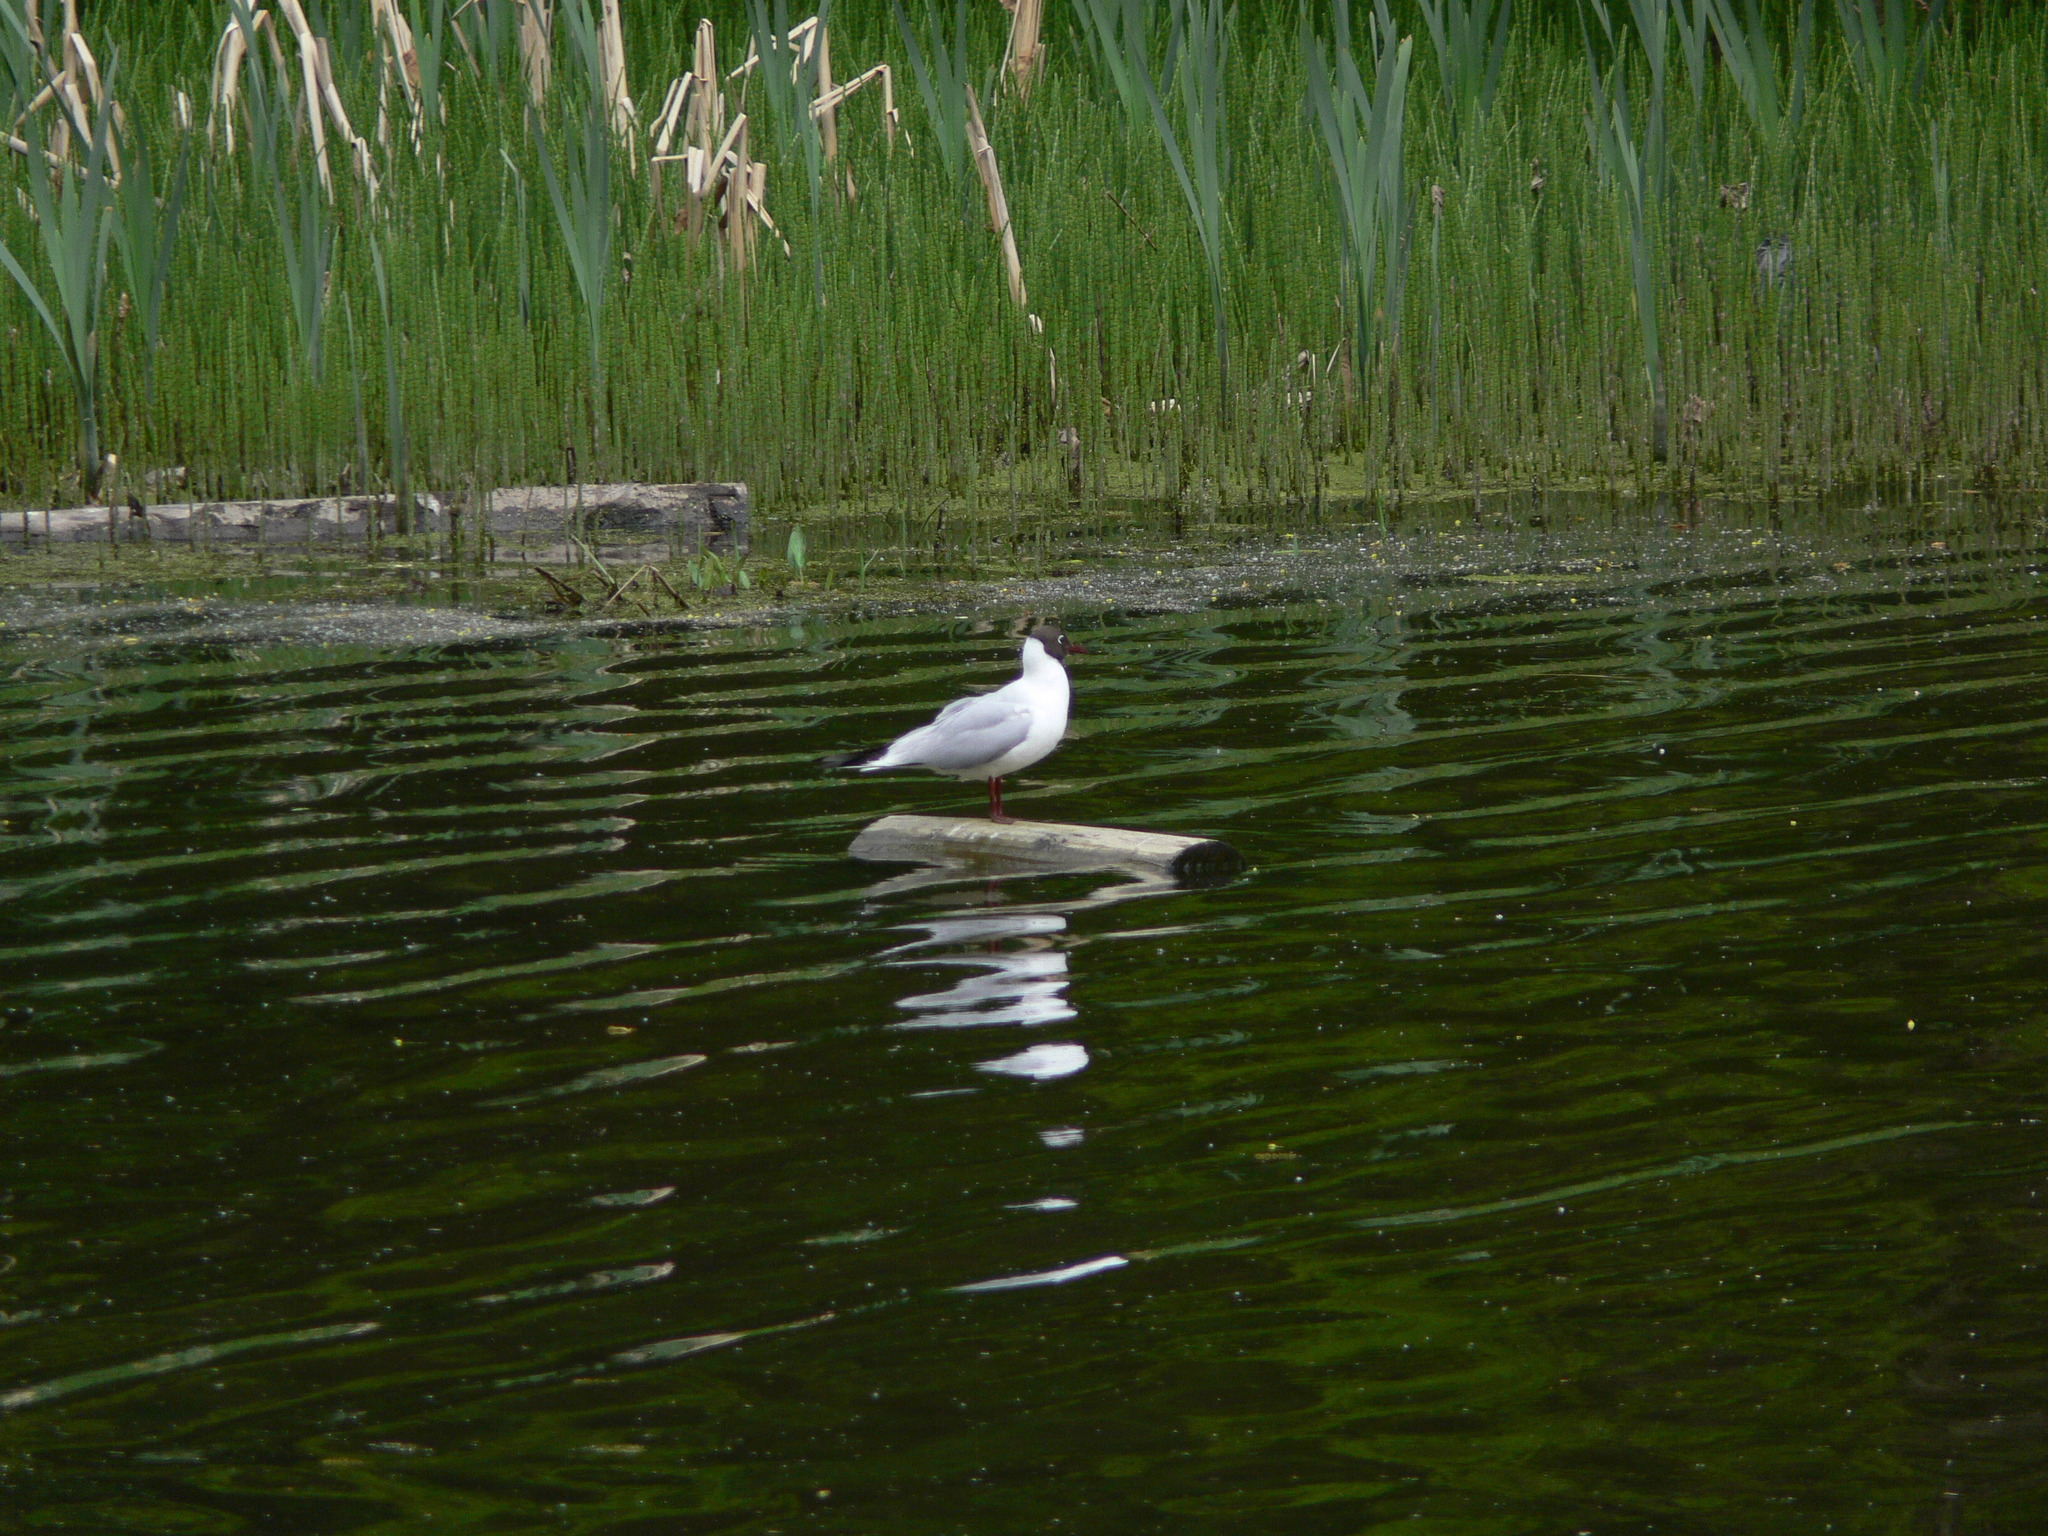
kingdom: Animalia
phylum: Chordata
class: Aves
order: Charadriiformes
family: Laridae
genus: Chroicocephalus
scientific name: Chroicocephalus ridibundus
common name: Black-headed gull
